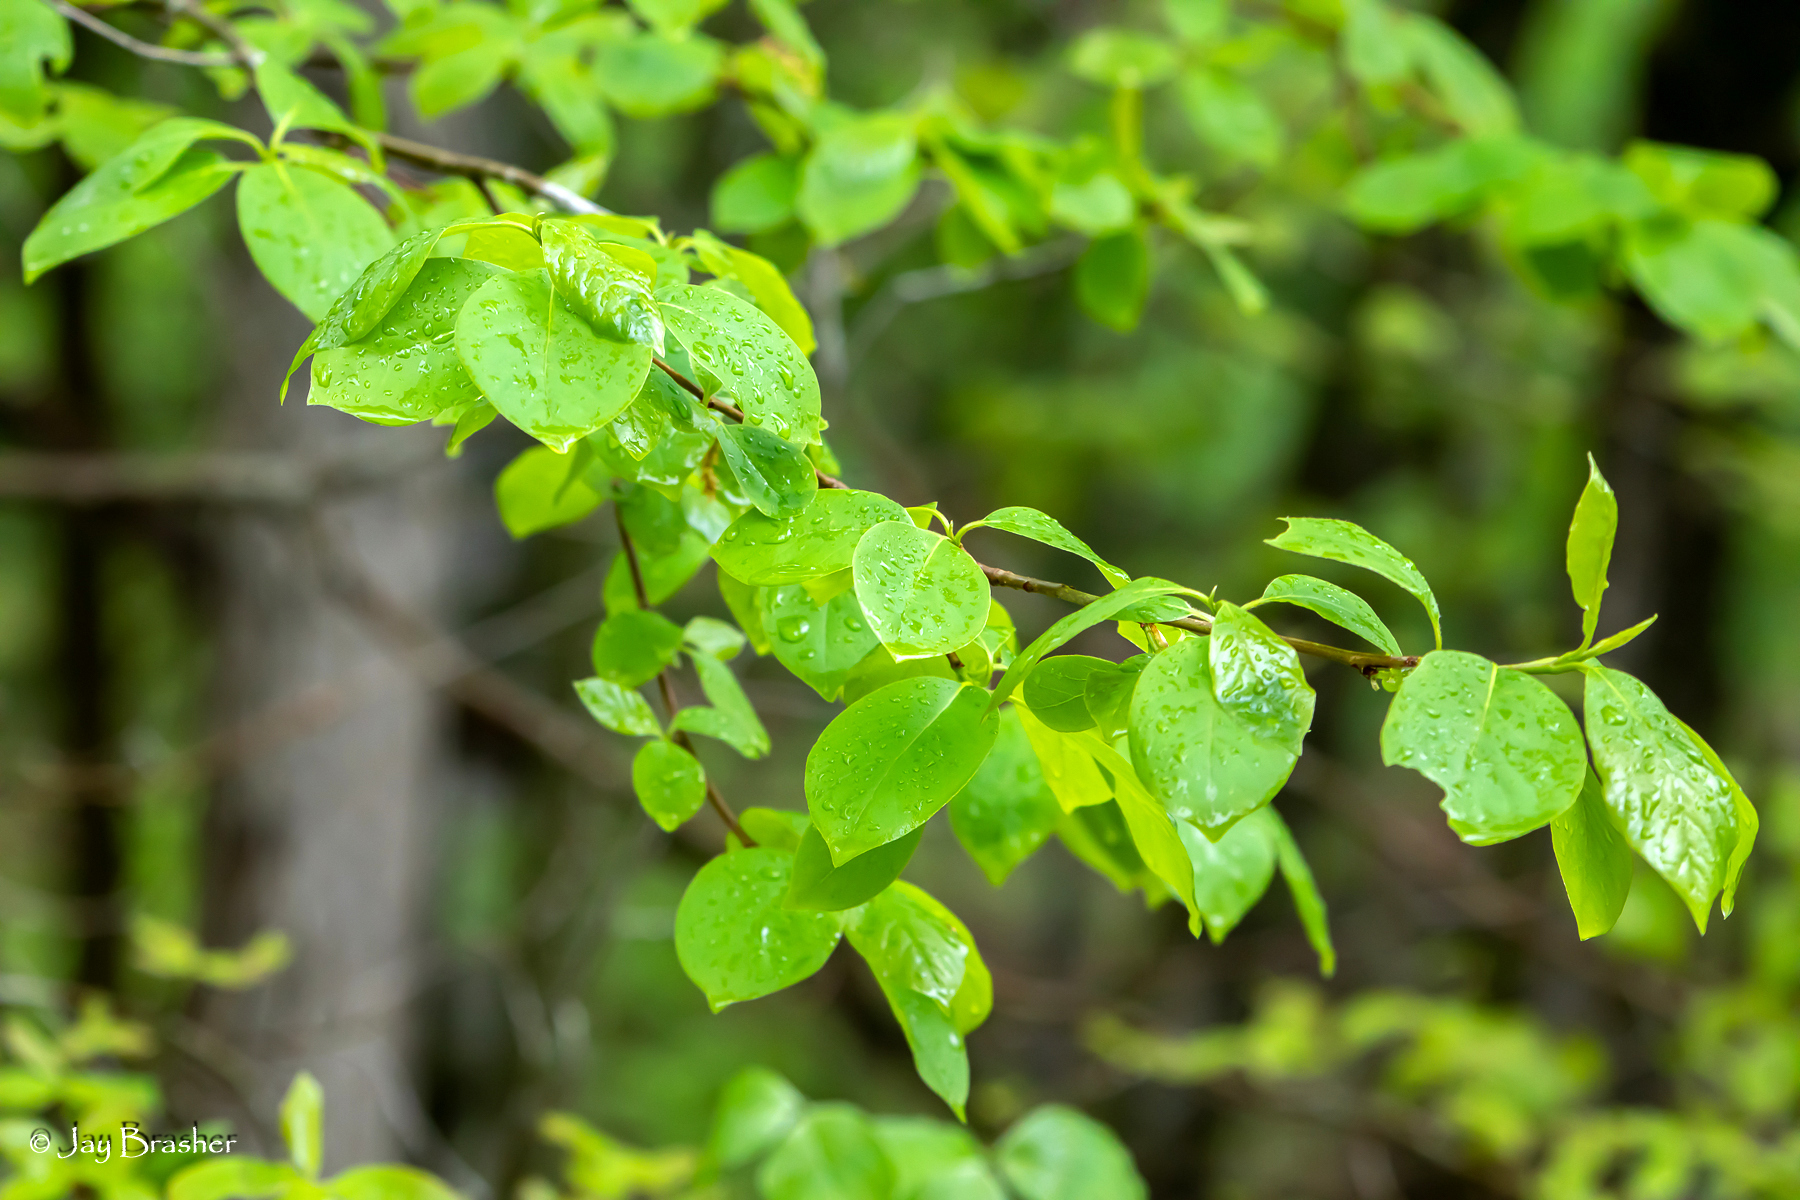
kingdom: Plantae
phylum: Tracheophyta
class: Magnoliopsida
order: Cornales
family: Nyssaceae
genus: Nyssa
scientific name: Nyssa sylvatica
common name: Black tupelo
